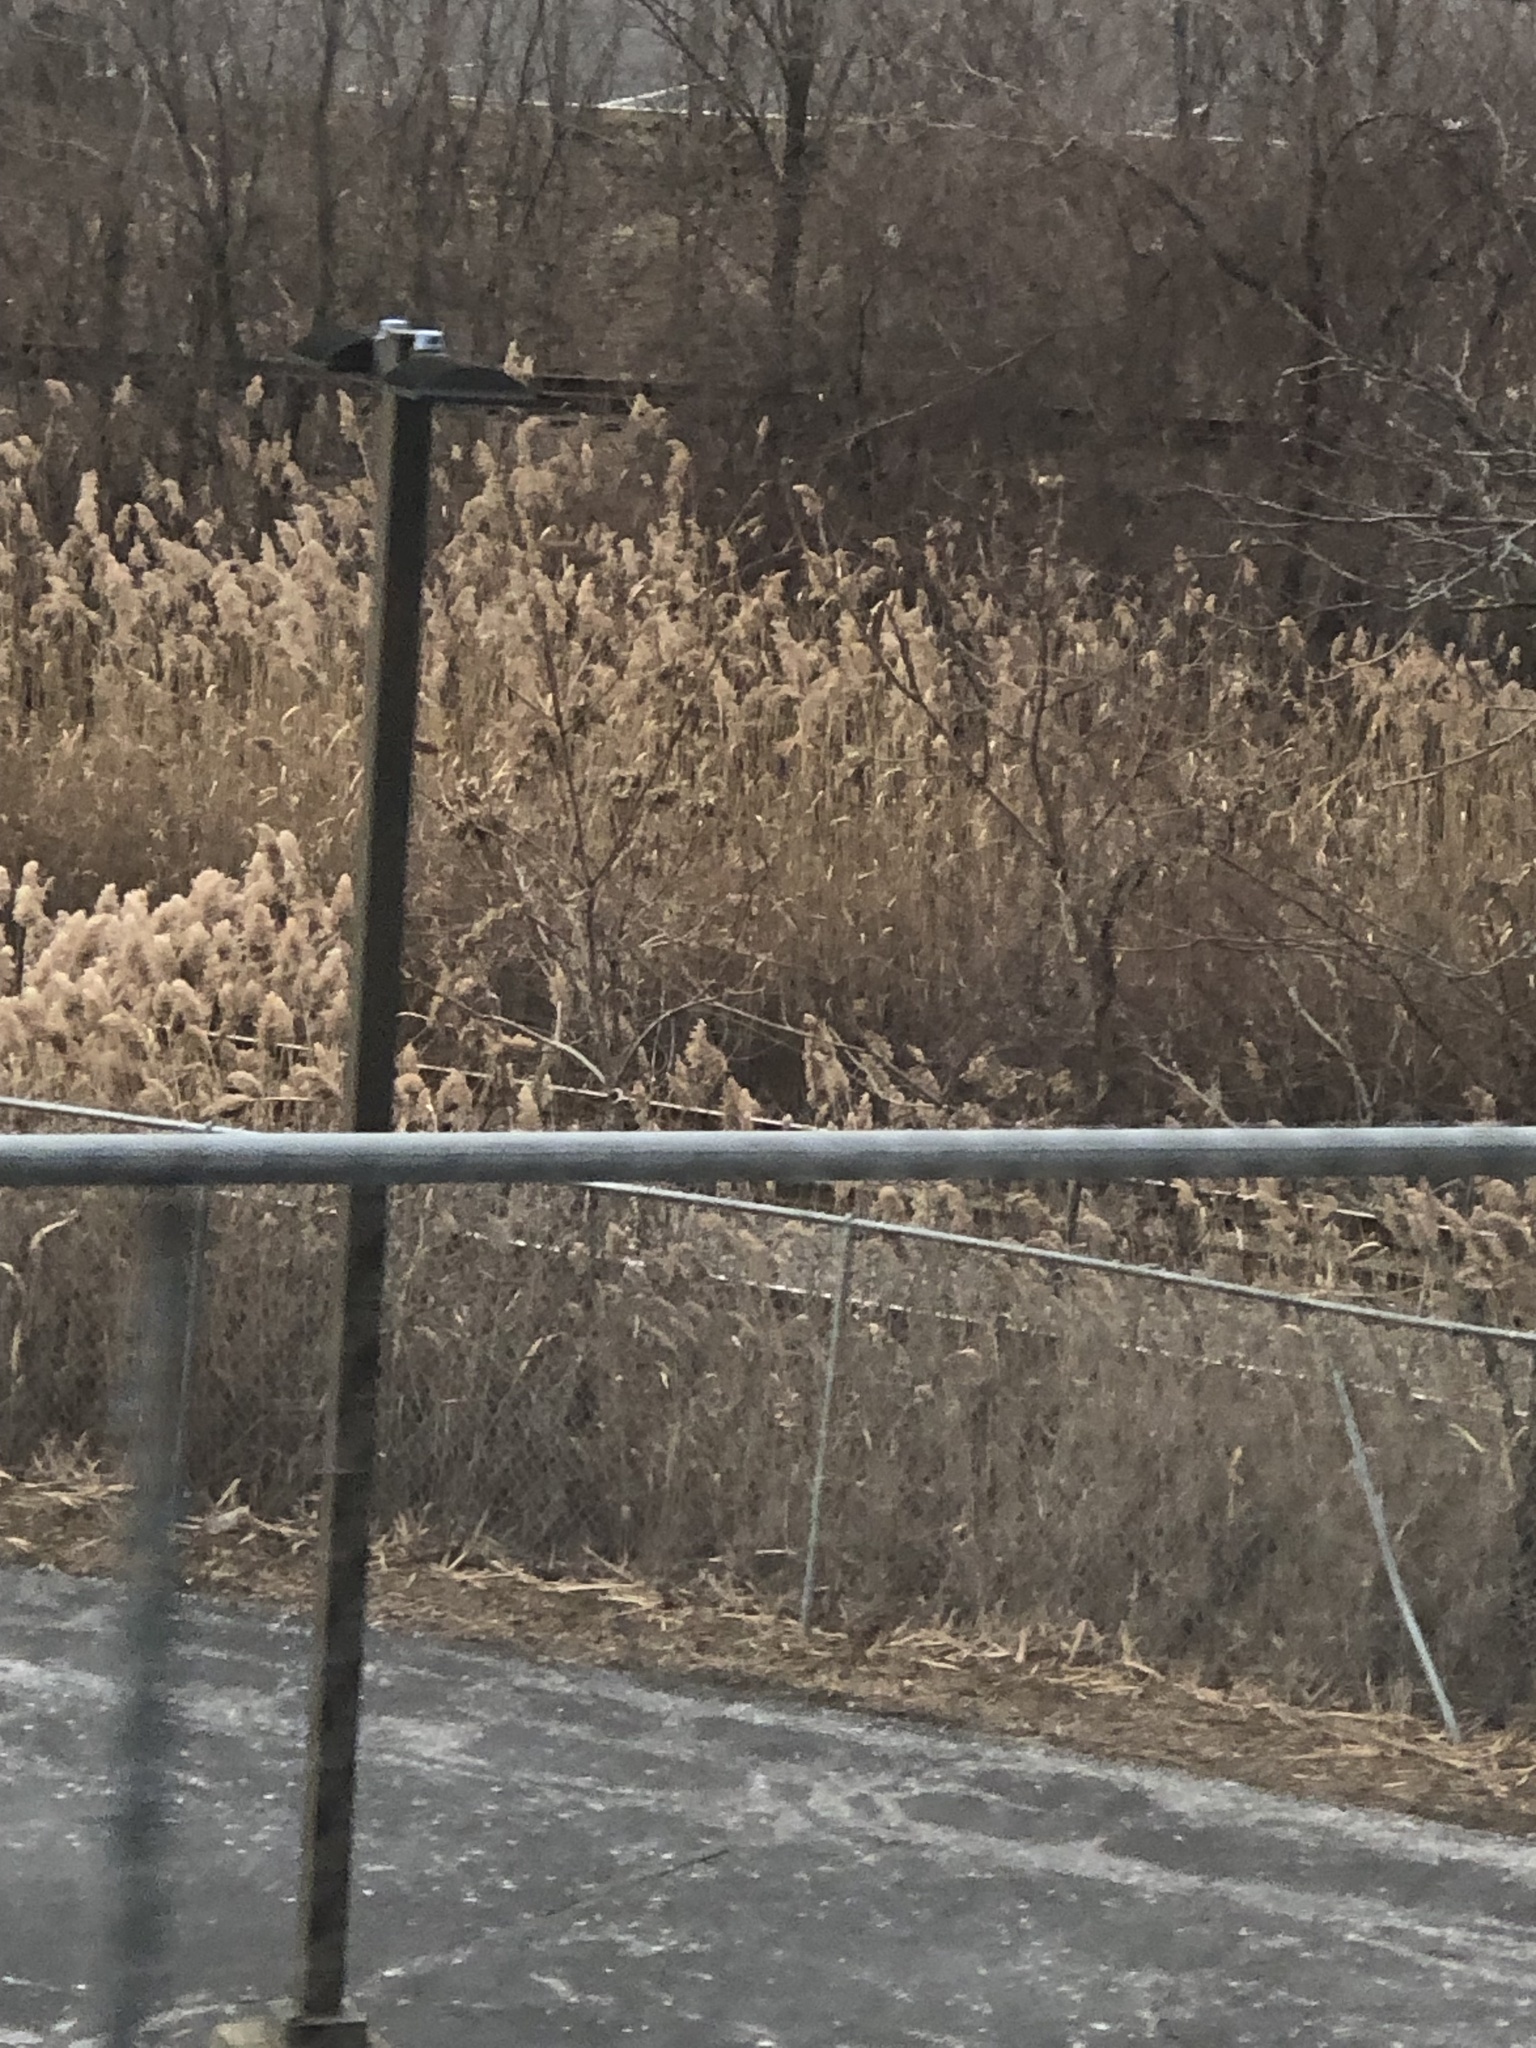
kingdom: Plantae
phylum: Tracheophyta
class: Liliopsida
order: Poales
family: Poaceae
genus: Phragmites
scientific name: Phragmites australis
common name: Common reed
